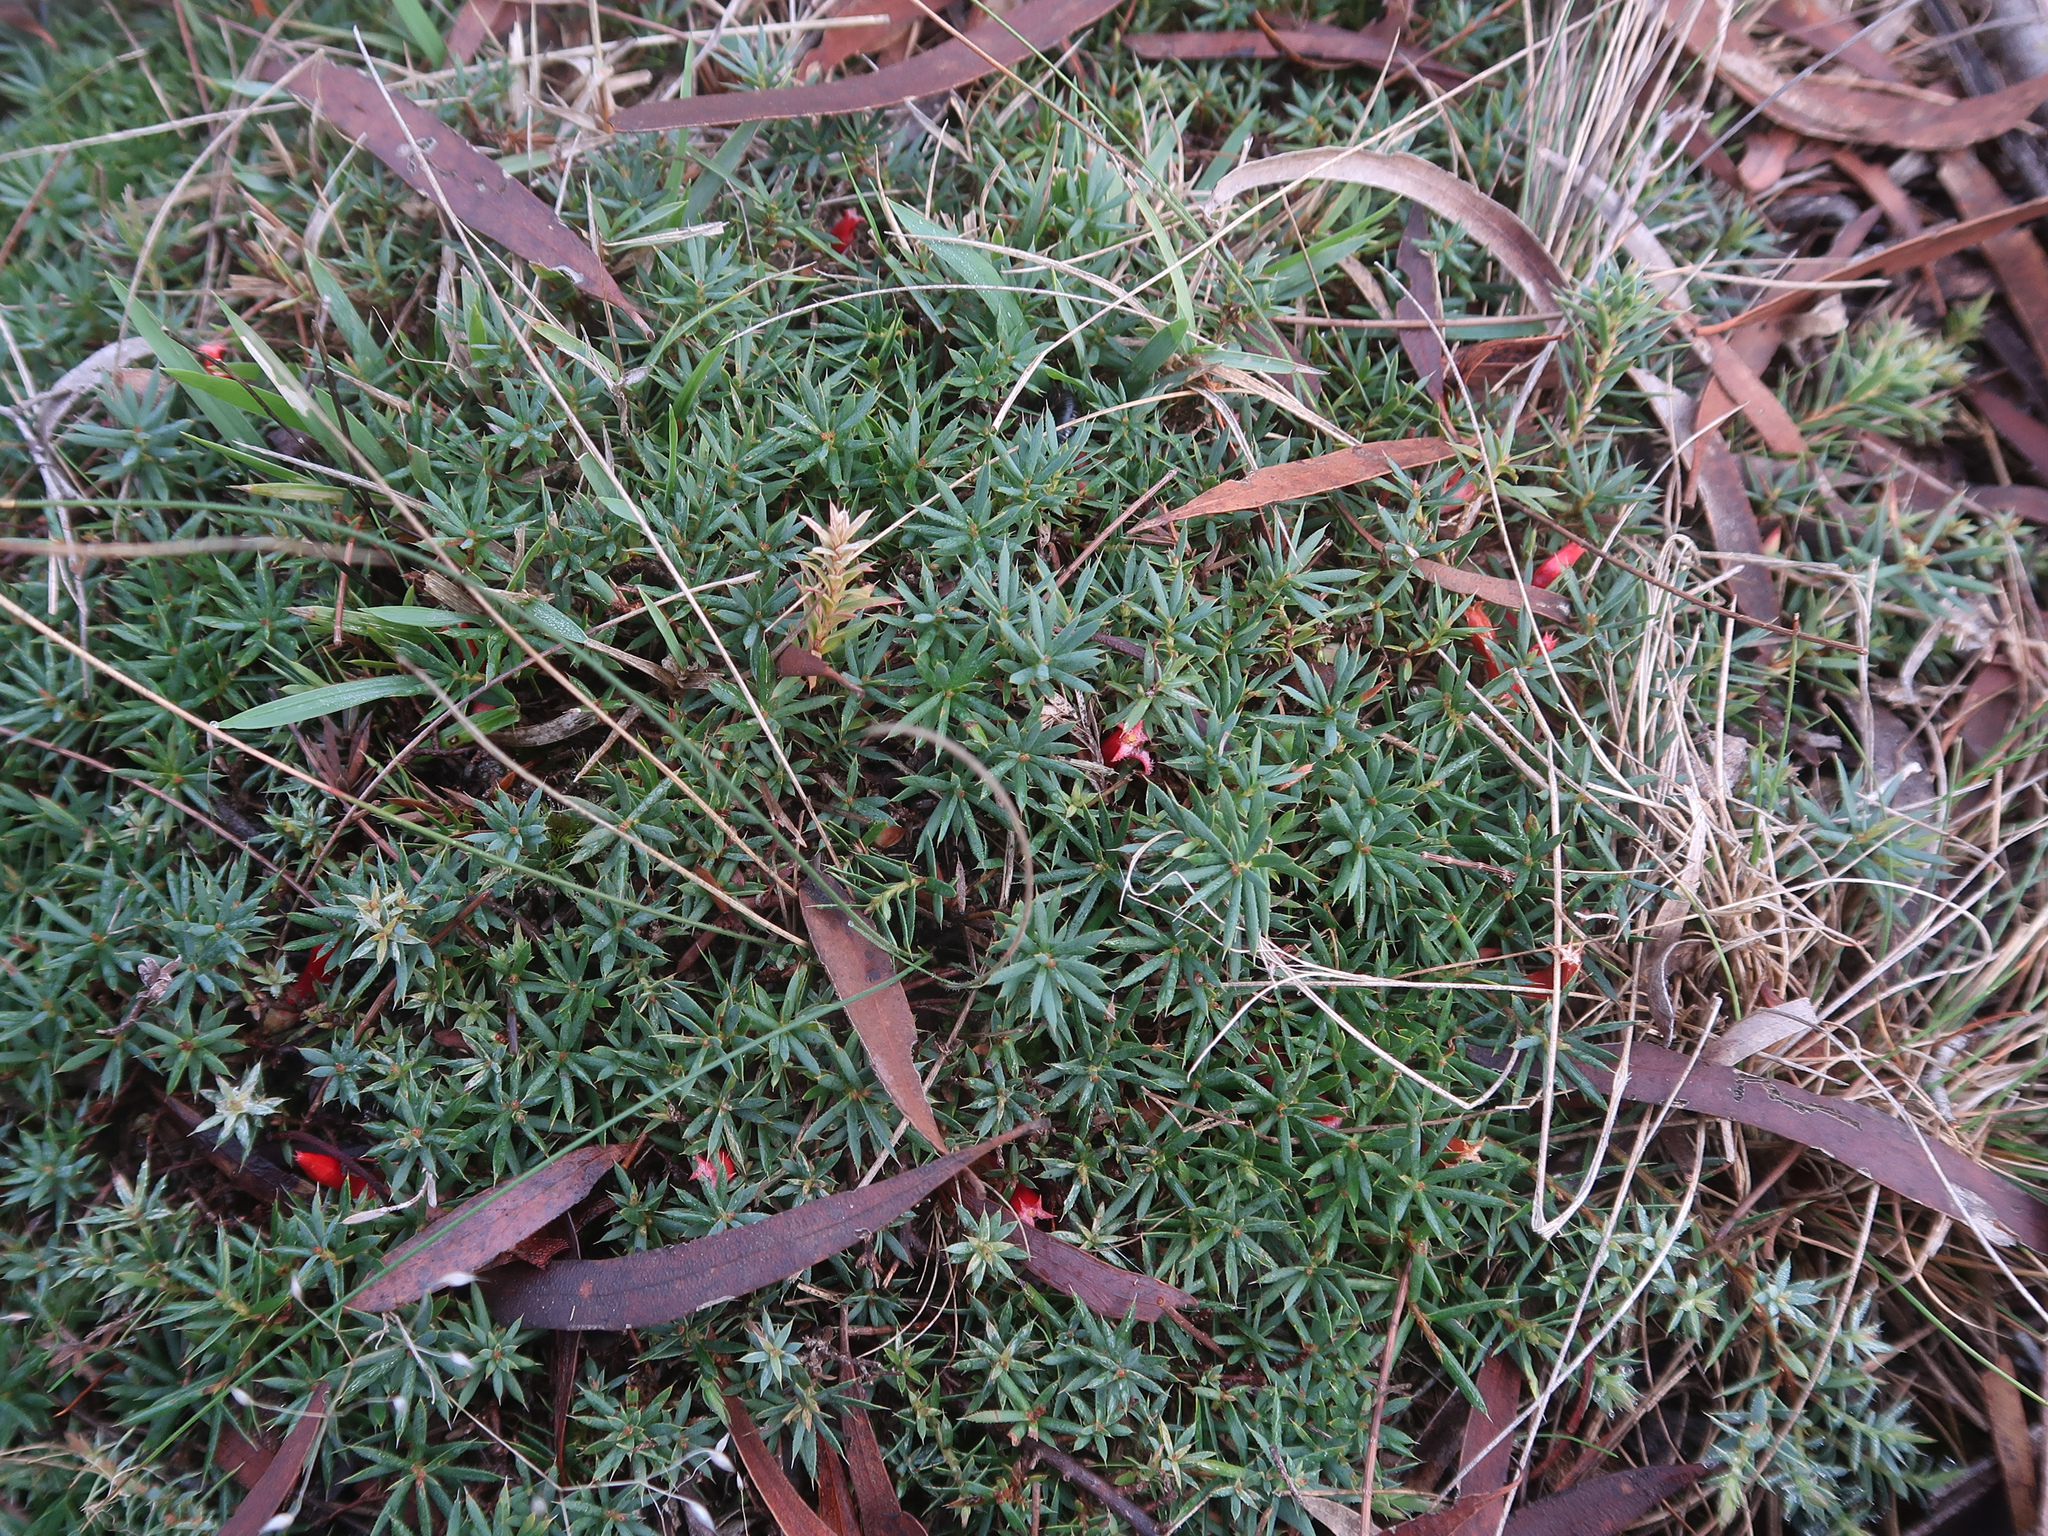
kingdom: Plantae
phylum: Tracheophyta
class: Magnoliopsida
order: Ericales
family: Ericaceae
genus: Styphelia
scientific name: Styphelia humifusa
